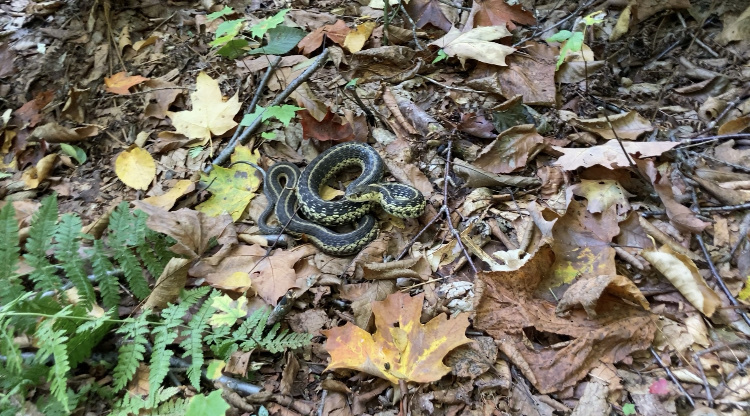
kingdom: Animalia
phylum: Chordata
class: Squamata
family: Colubridae
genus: Thamnophis
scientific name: Thamnophis sirtalis
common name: Common garter snake
